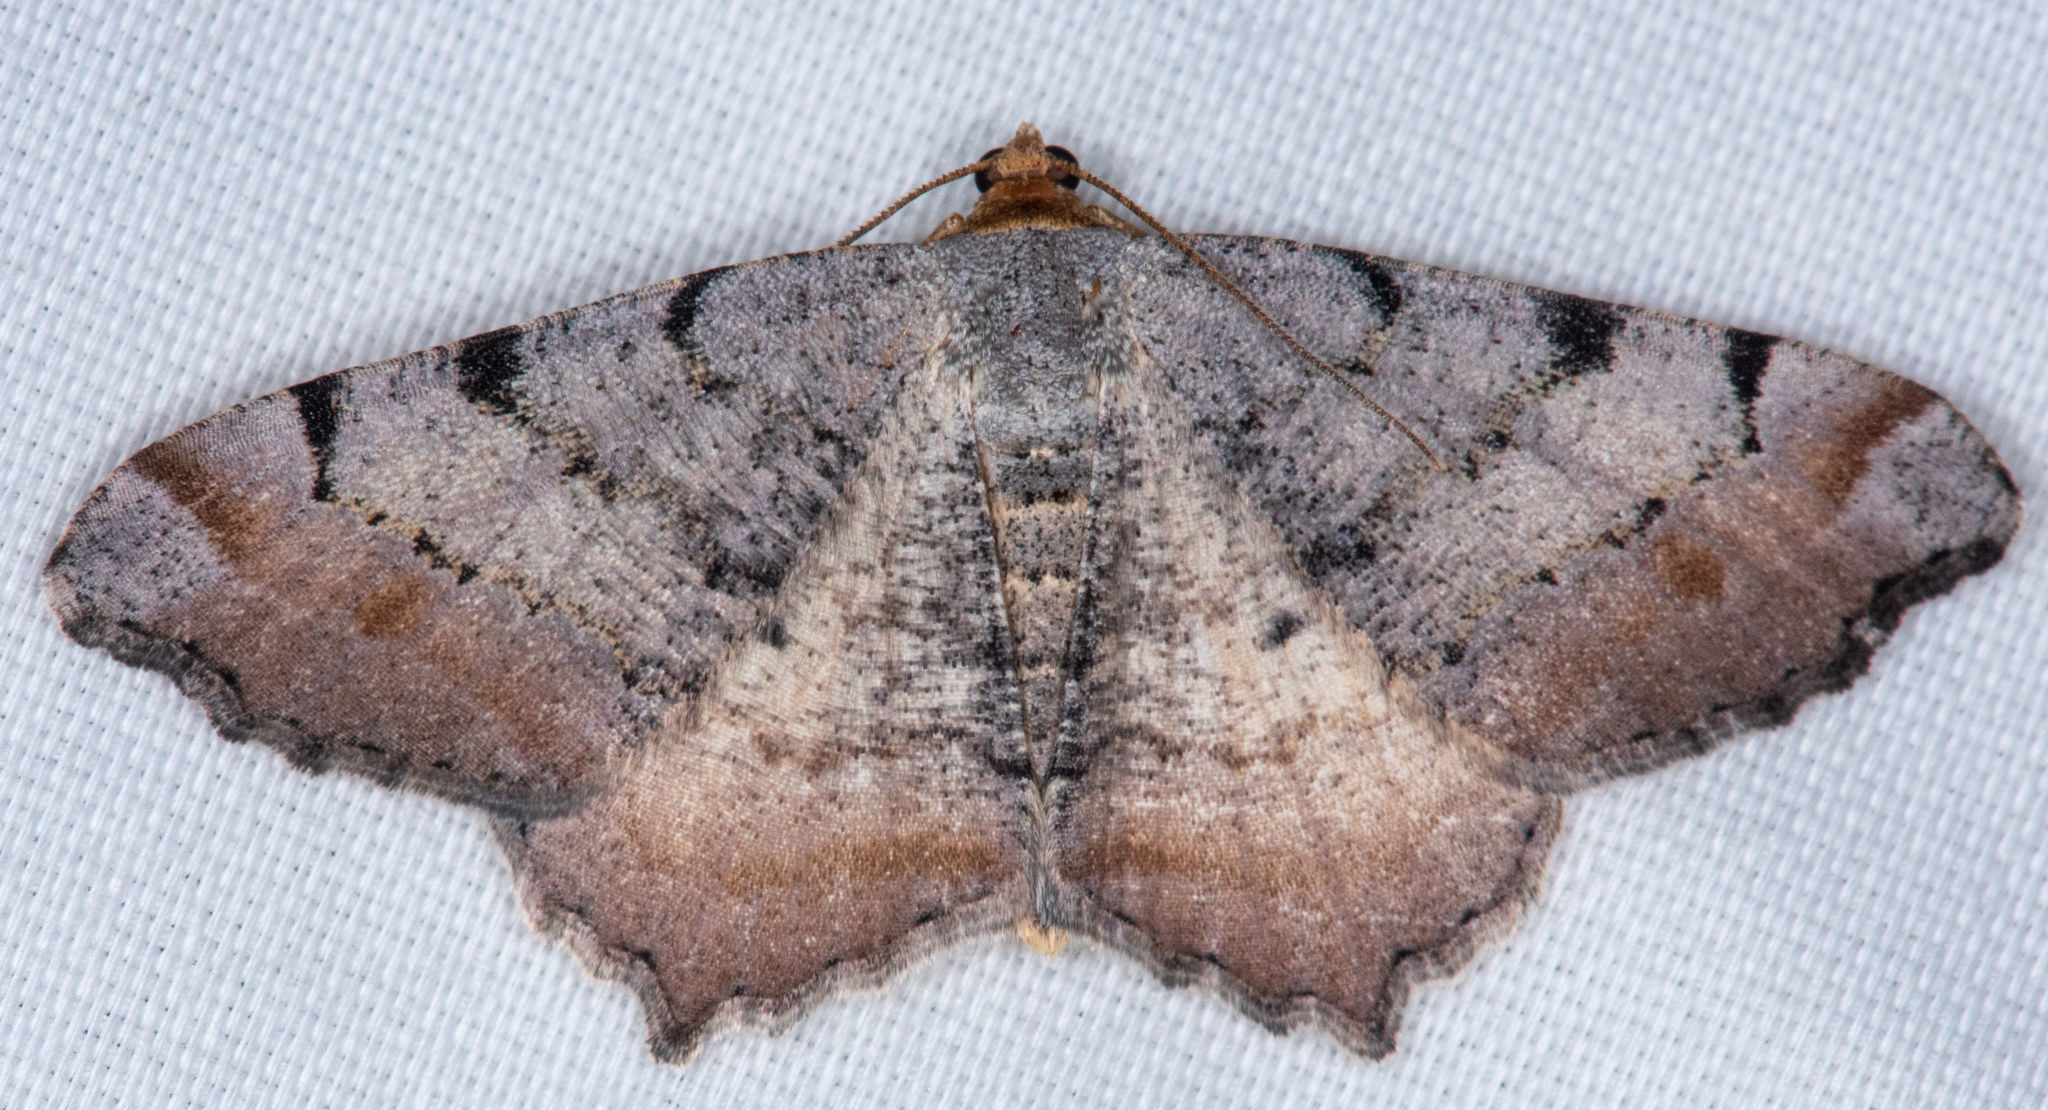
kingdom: Animalia
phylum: Arthropoda
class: Insecta
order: Lepidoptera
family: Geometridae
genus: Macaria
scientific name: Macaria adonis
